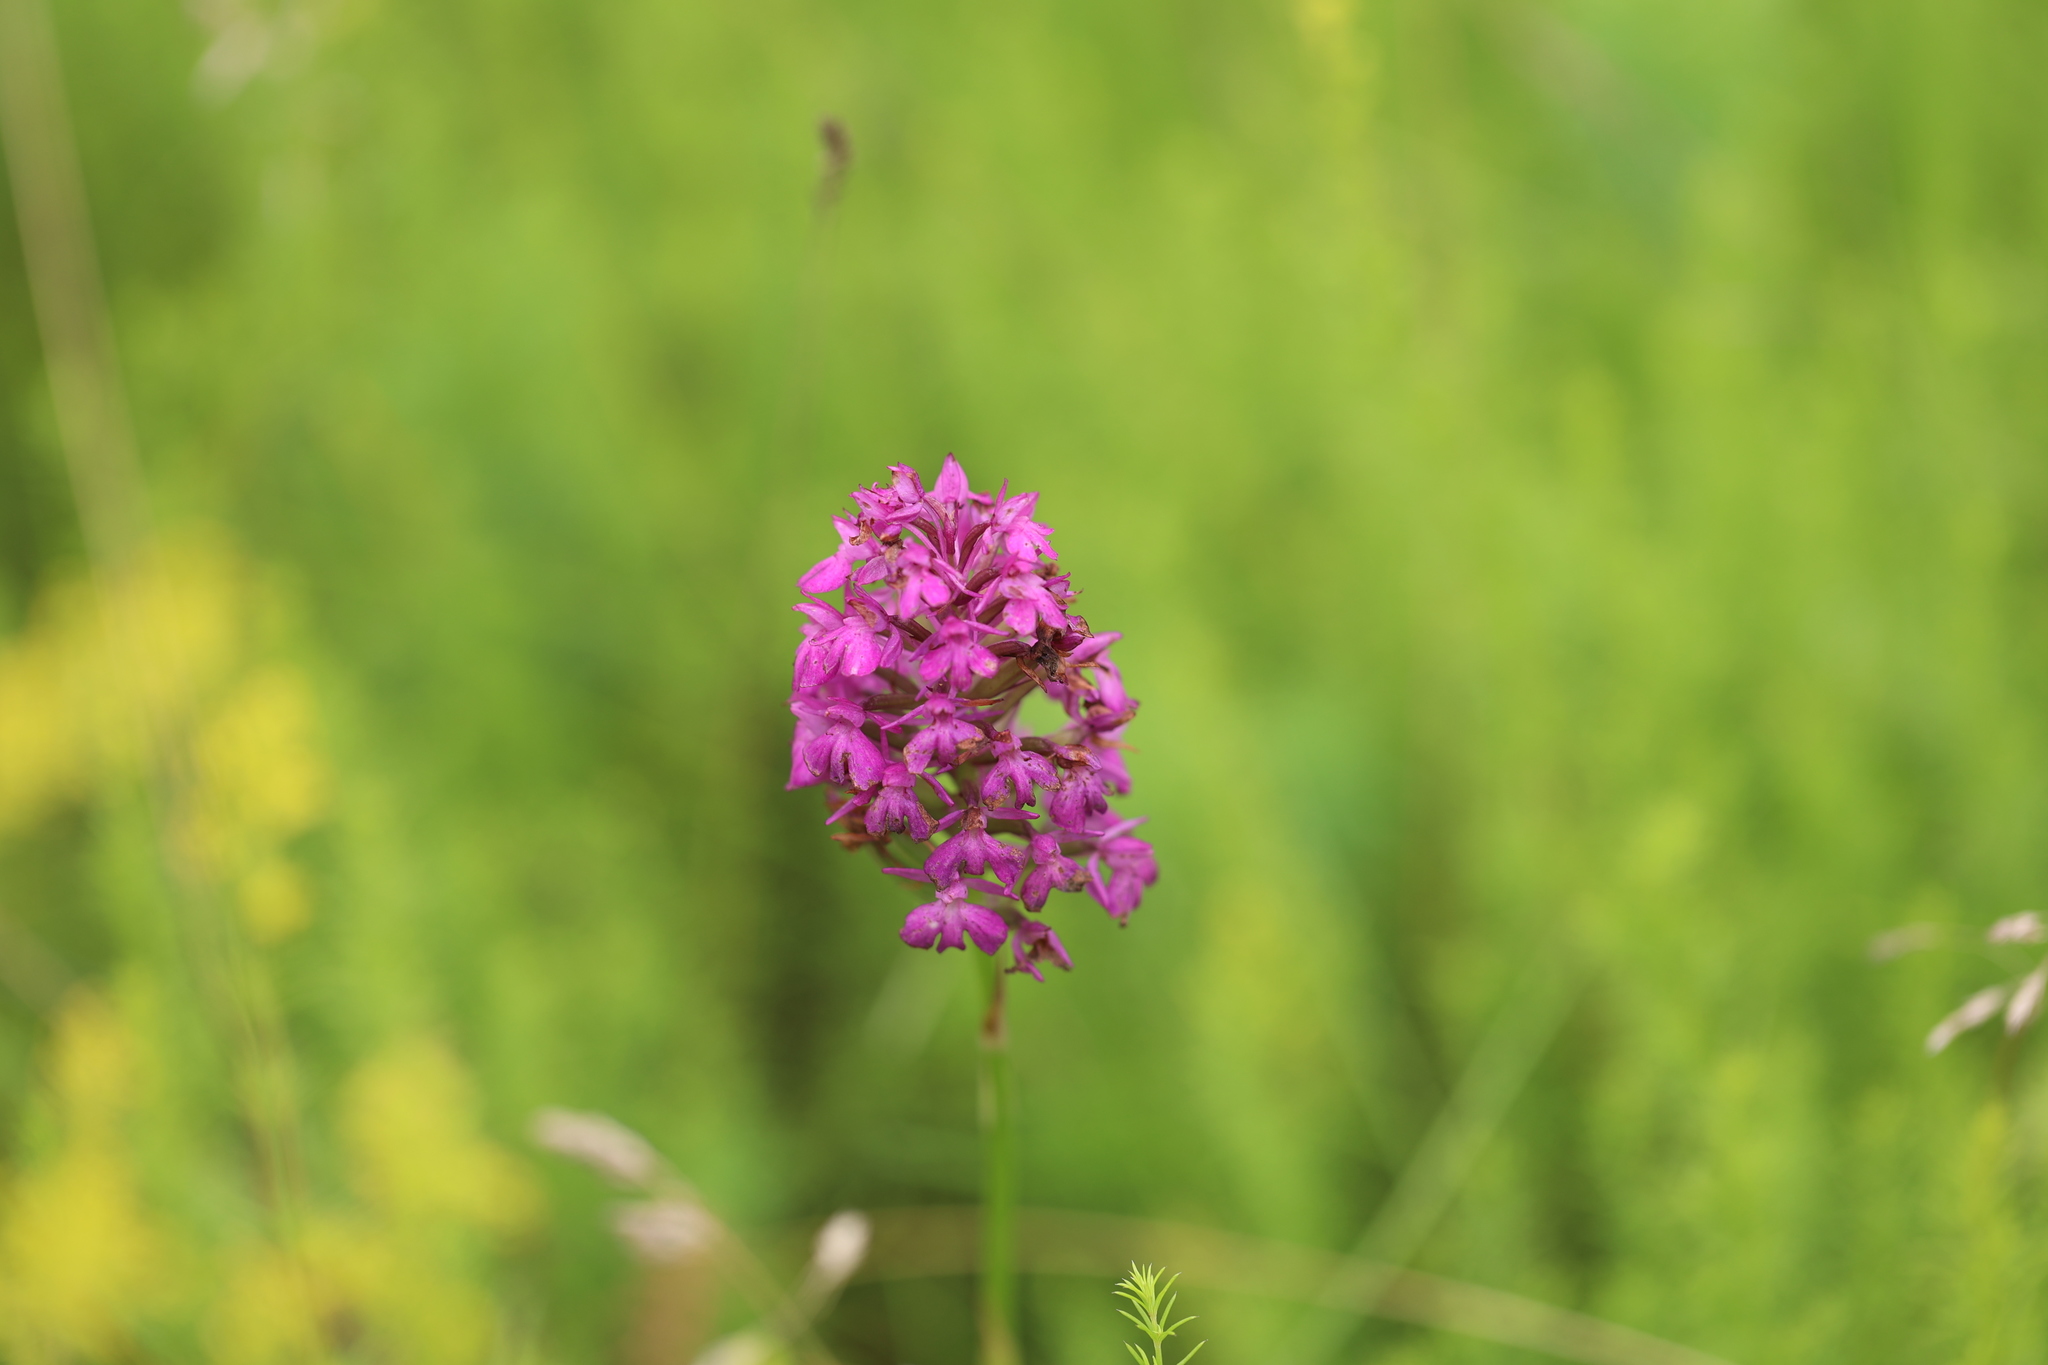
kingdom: Plantae
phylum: Tracheophyta
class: Liliopsida
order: Asparagales
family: Orchidaceae
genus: Anacamptis
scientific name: Anacamptis pyramidalis
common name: Pyramidal orchid
